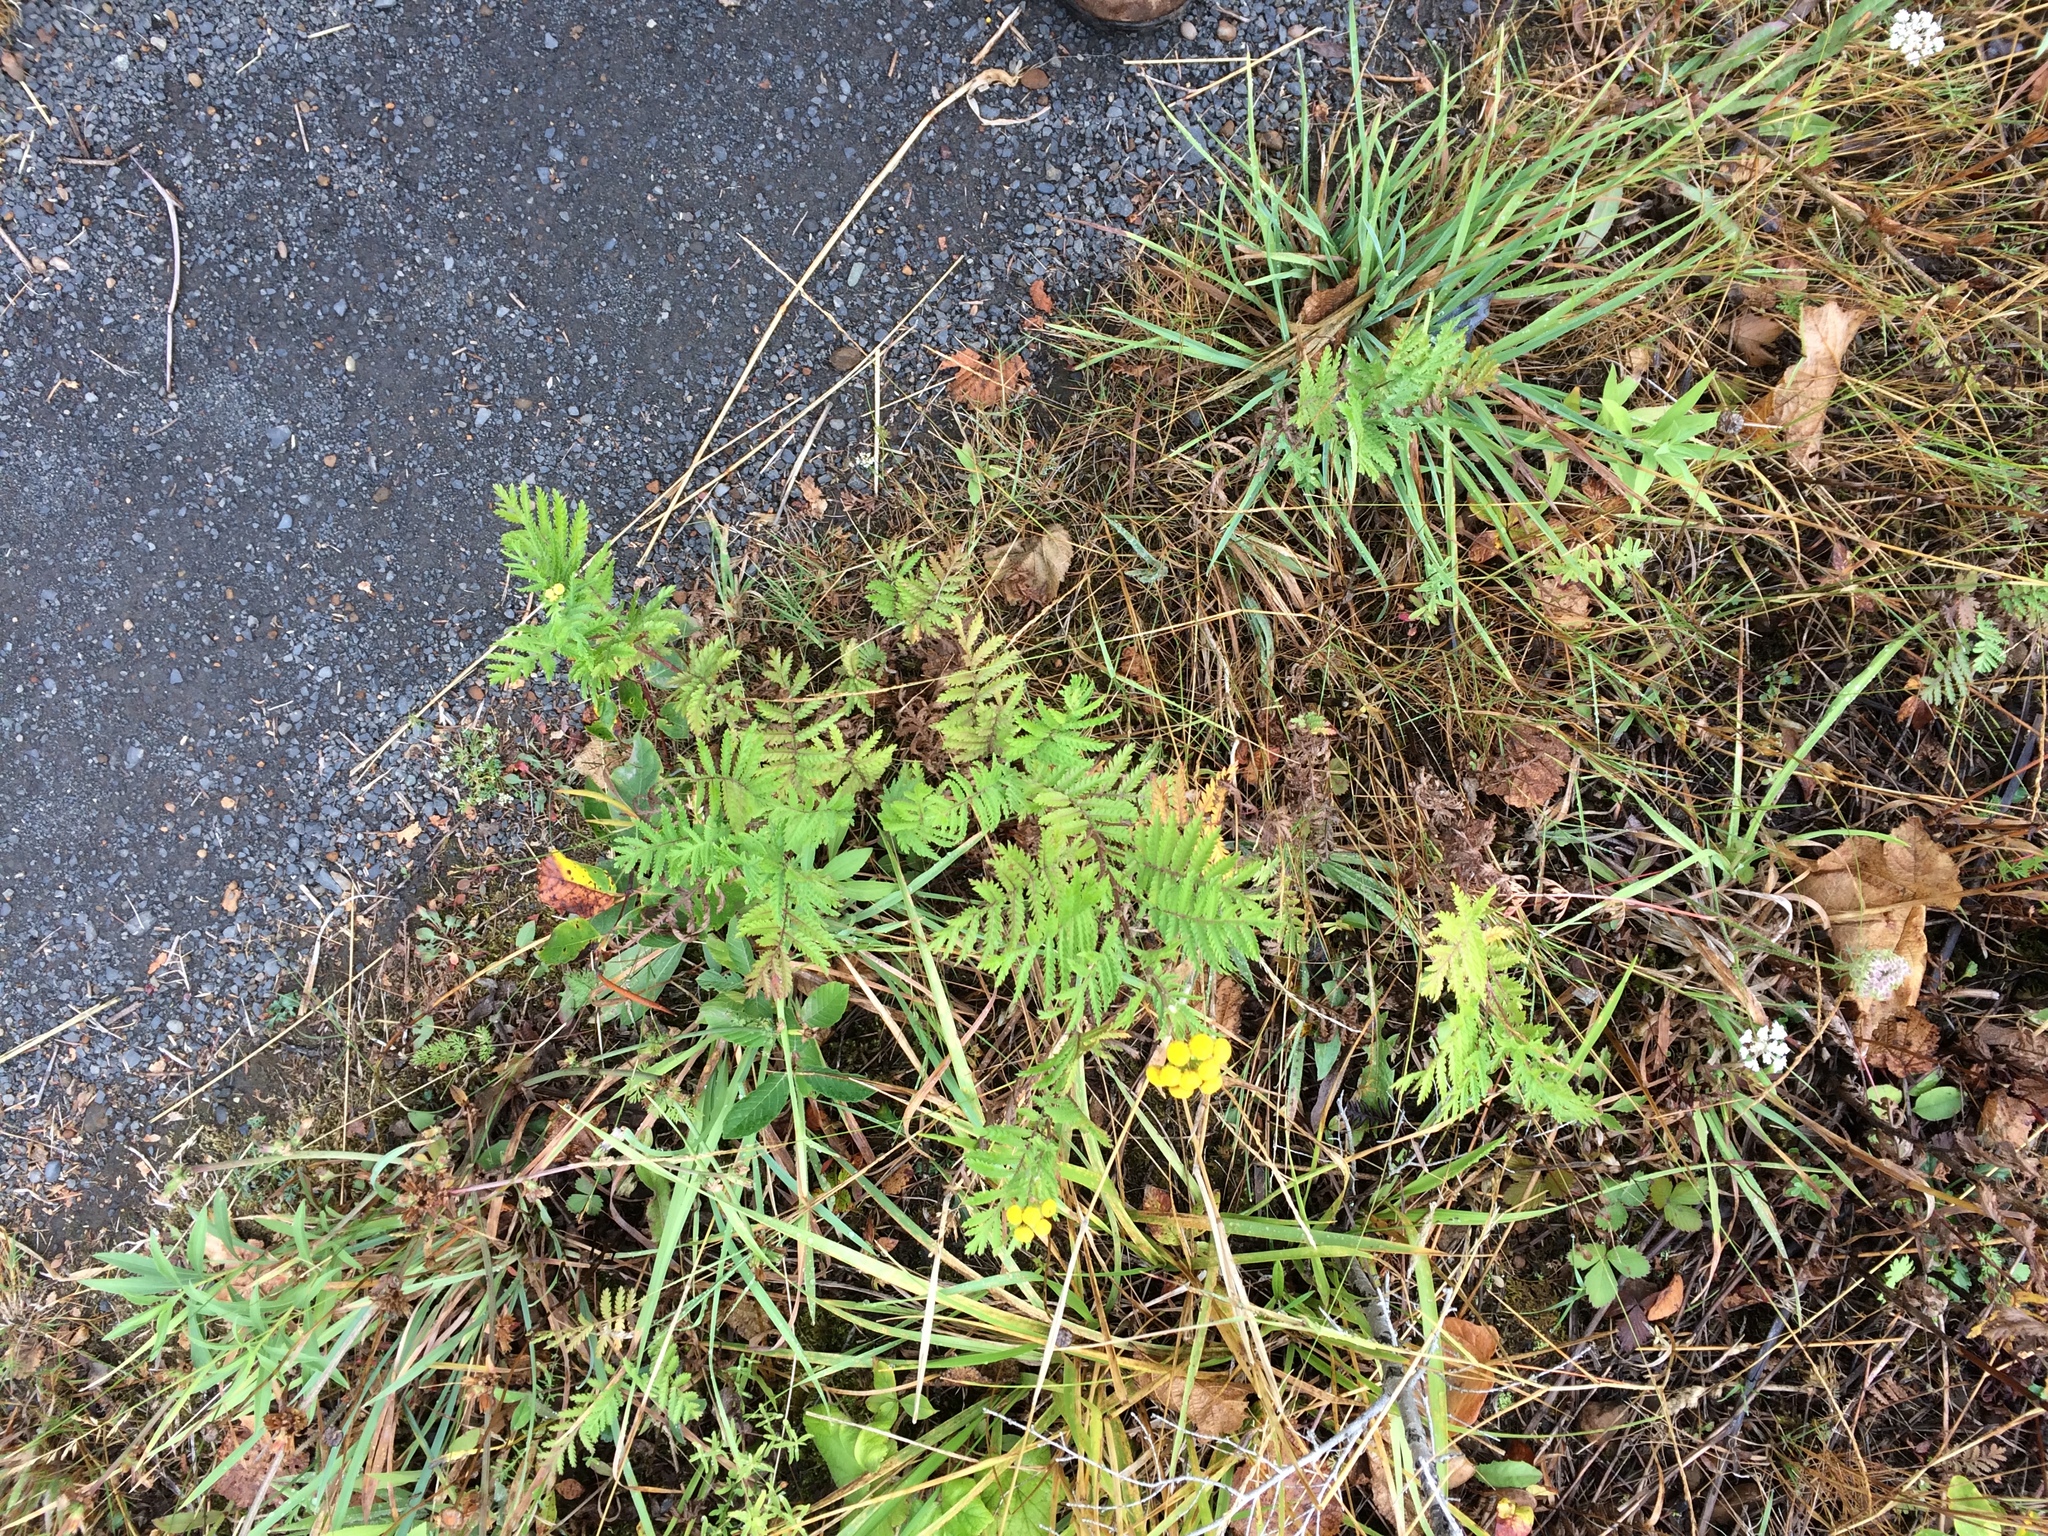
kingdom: Plantae
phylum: Tracheophyta
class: Magnoliopsida
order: Asterales
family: Asteraceae
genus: Tanacetum
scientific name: Tanacetum vulgare
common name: Common tansy
